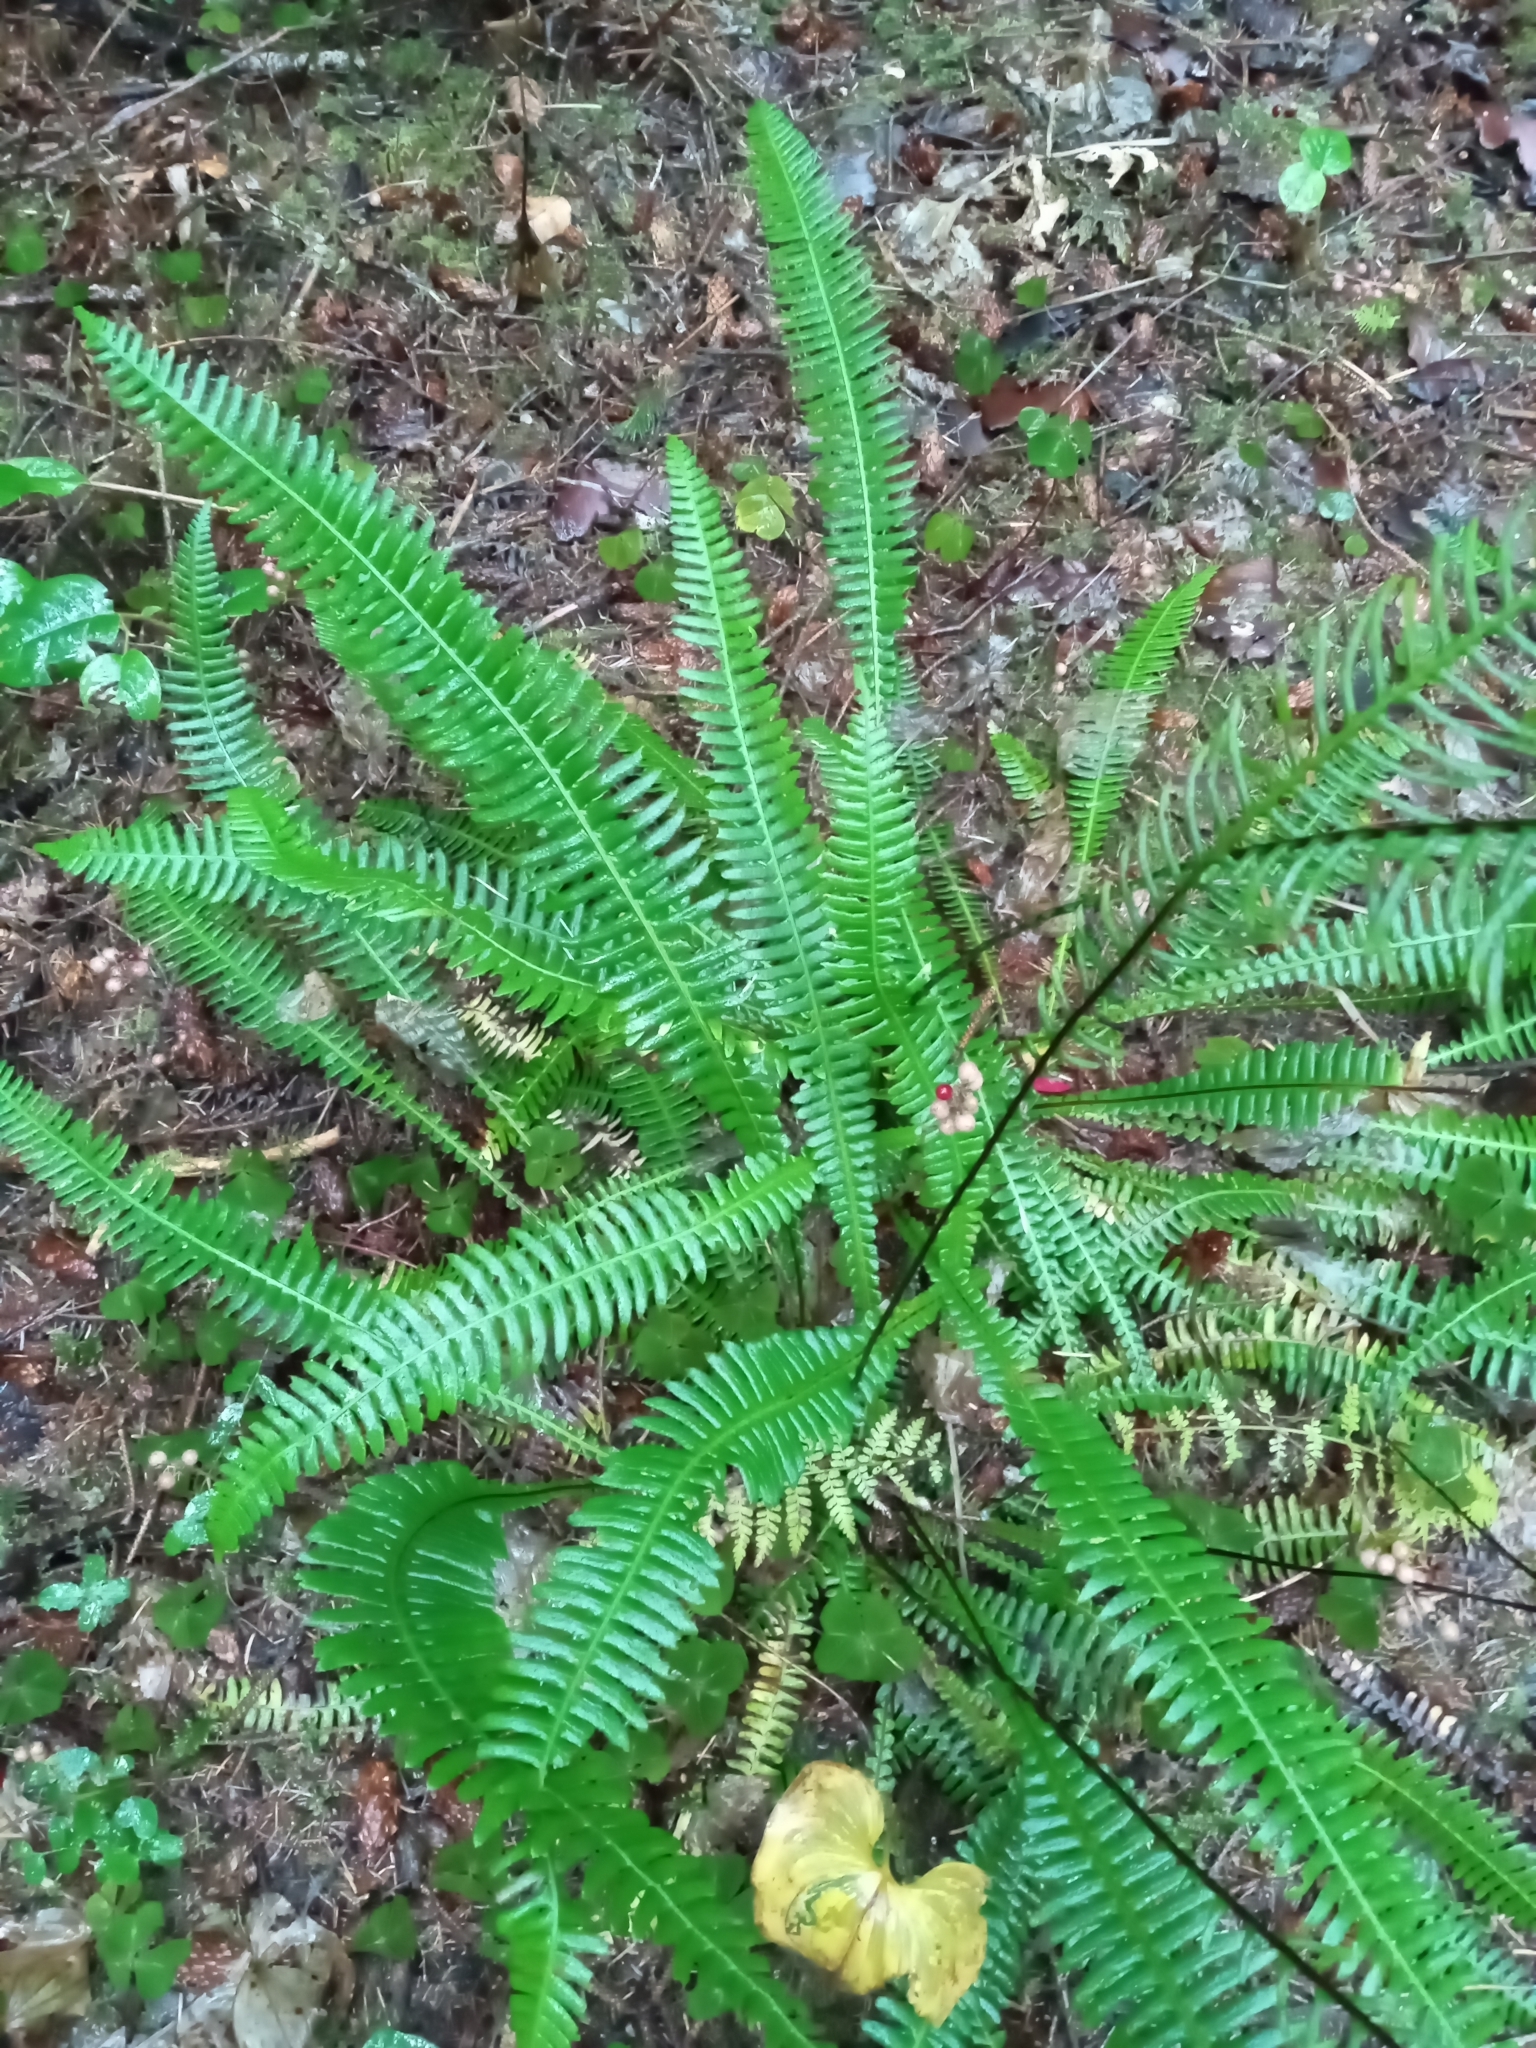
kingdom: Plantae
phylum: Tracheophyta
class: Polypodiopsida
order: Polypodiales
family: Blechnaceae
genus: Struthiopteris
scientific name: Struthiopteris spicant
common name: Deer fern
